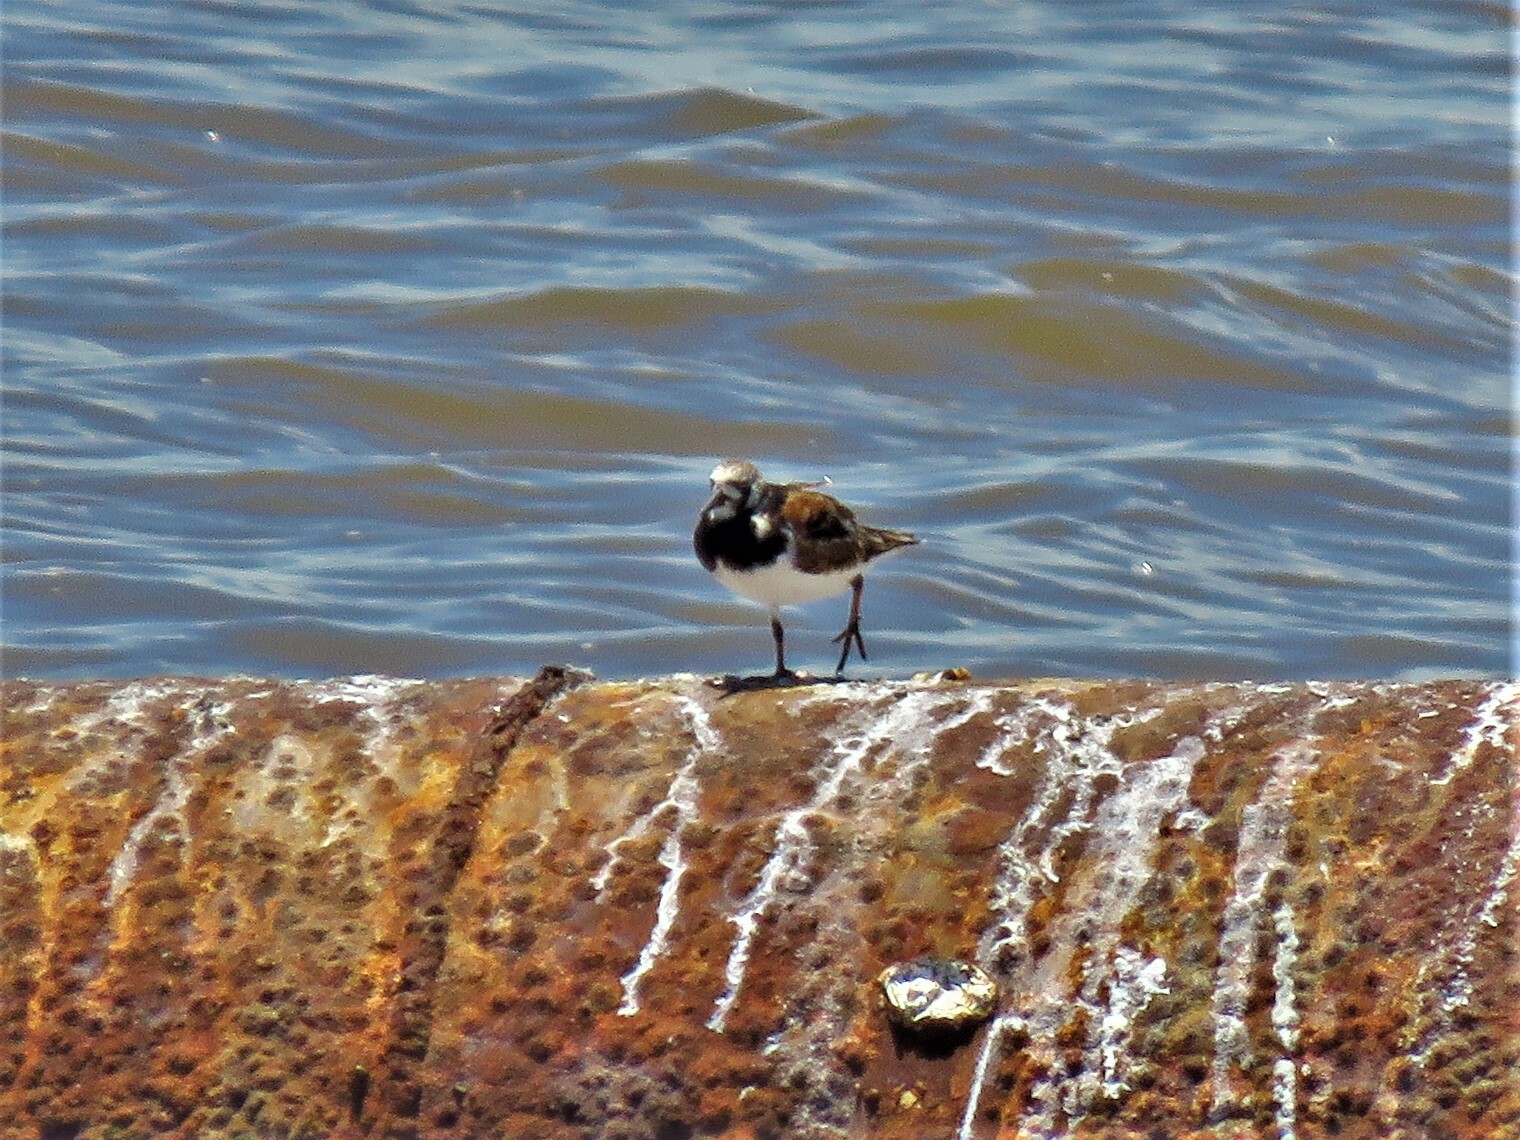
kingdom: Animalia
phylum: Chordata
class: Aves
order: Charadriiformes
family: Scolopacidae
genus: Arenaria
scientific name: Arenaria interpres
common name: Ruddy turnstone
